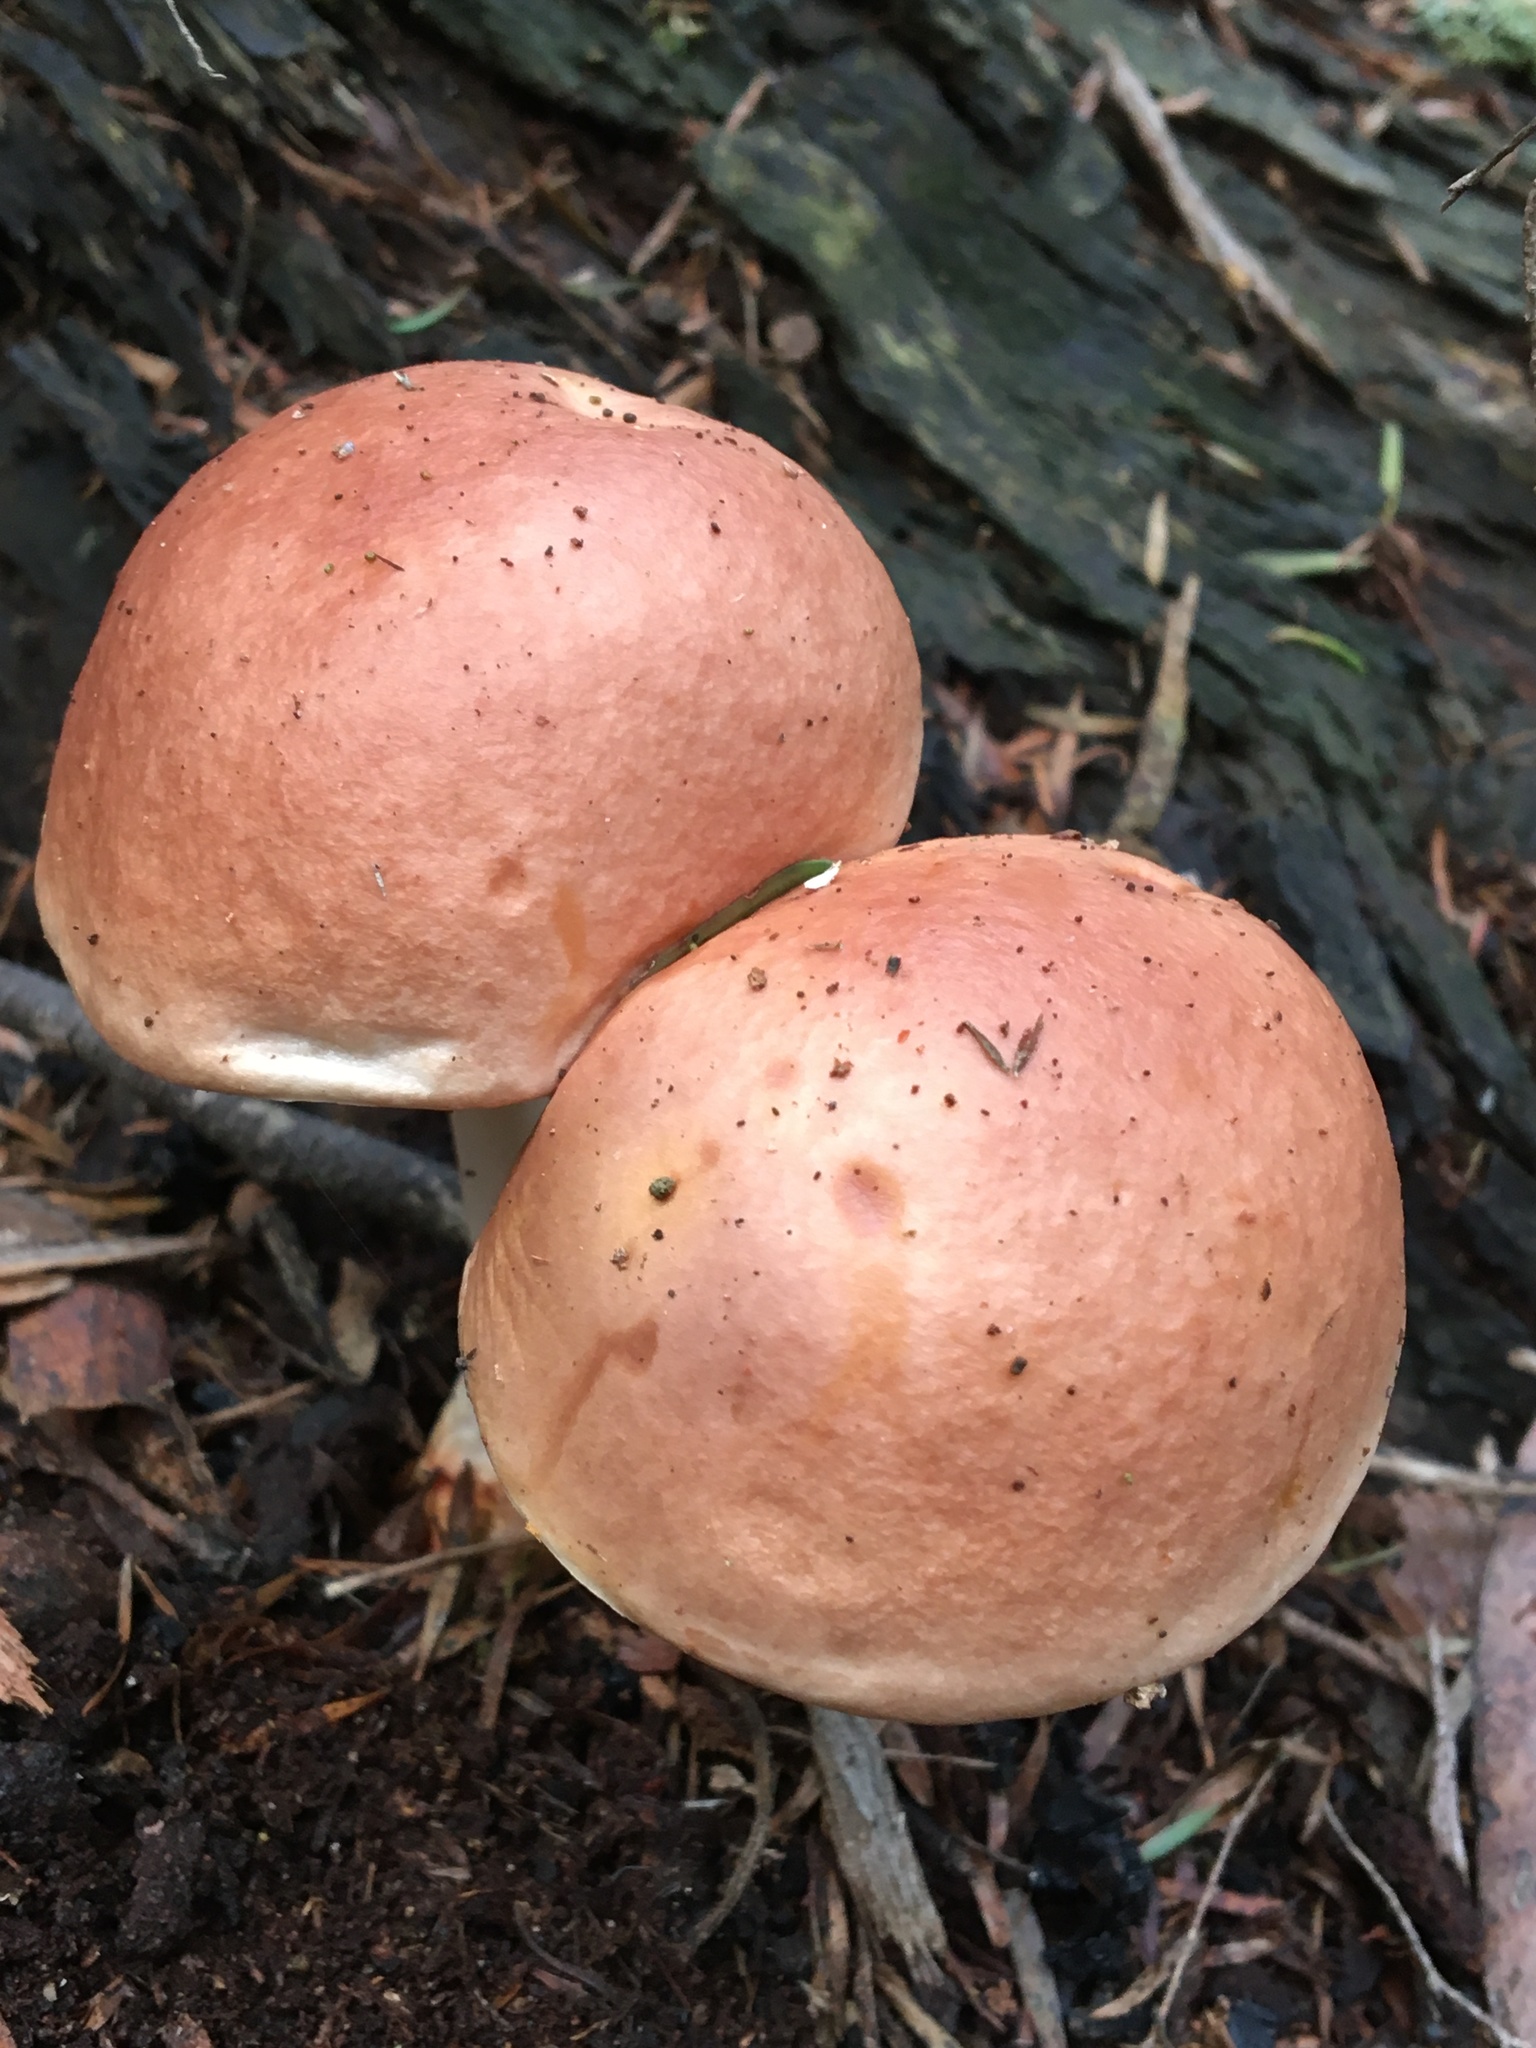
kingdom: Fungi
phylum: Basidiomycota
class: Agaricomycetes
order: Boletales
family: Boletaceae
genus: Fistulinella
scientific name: Fistulinella mollis
